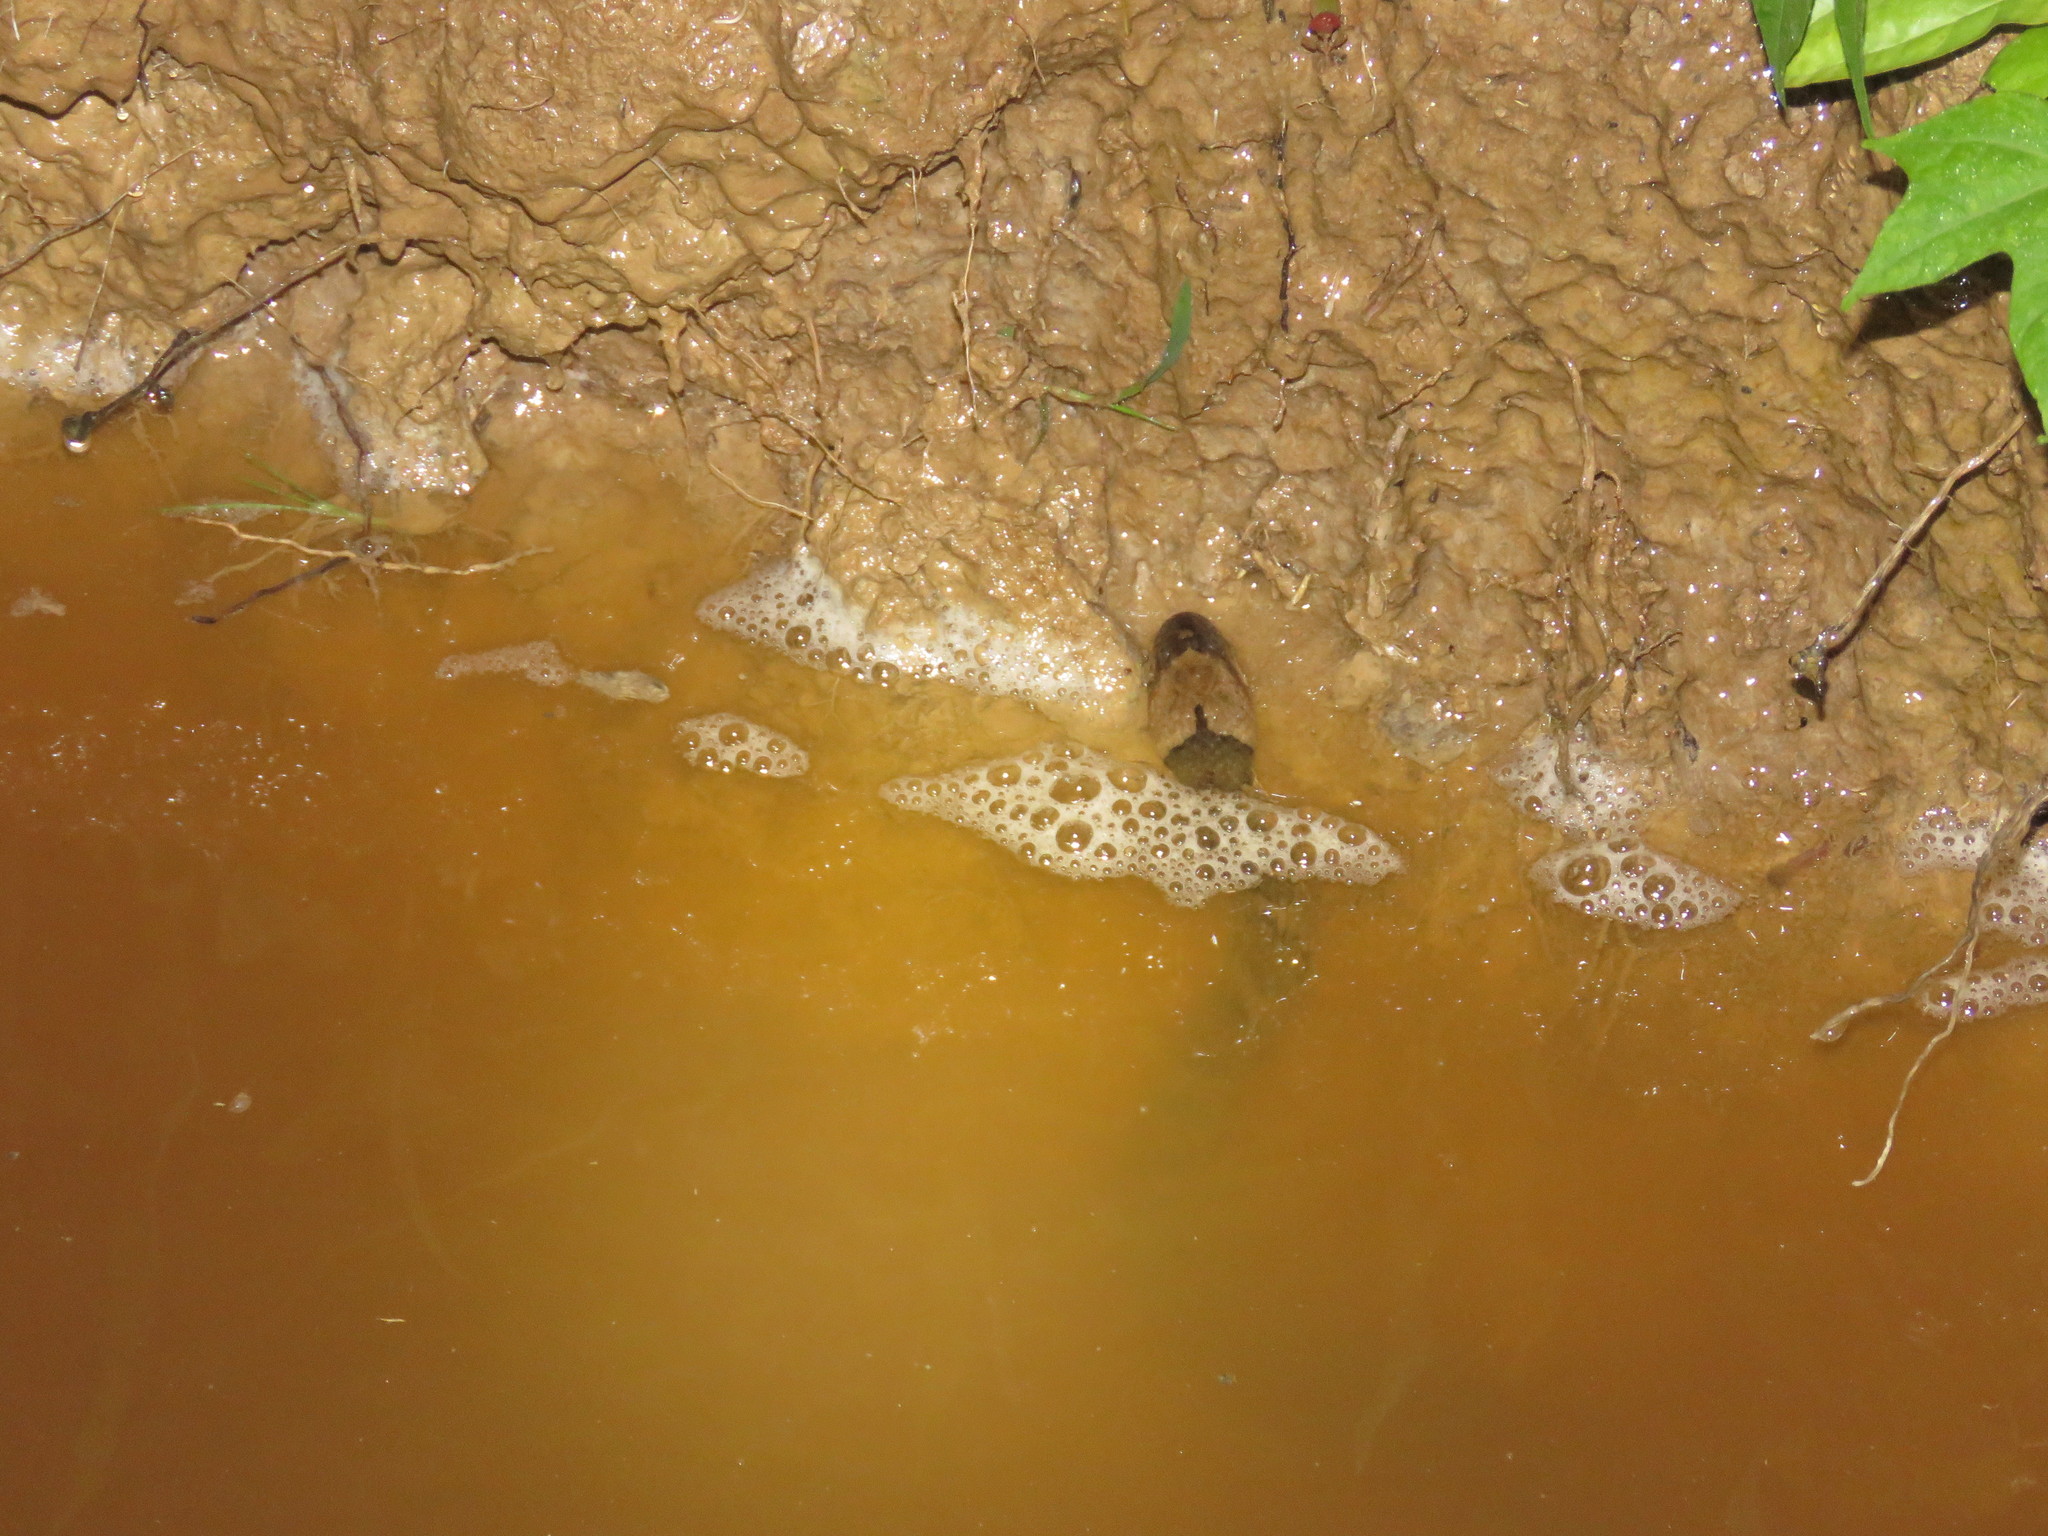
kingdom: Animalia
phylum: Chordata
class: Squamata
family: Colubridae
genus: Helicops
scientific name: Helicops angulatus
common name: Mountain keelback
